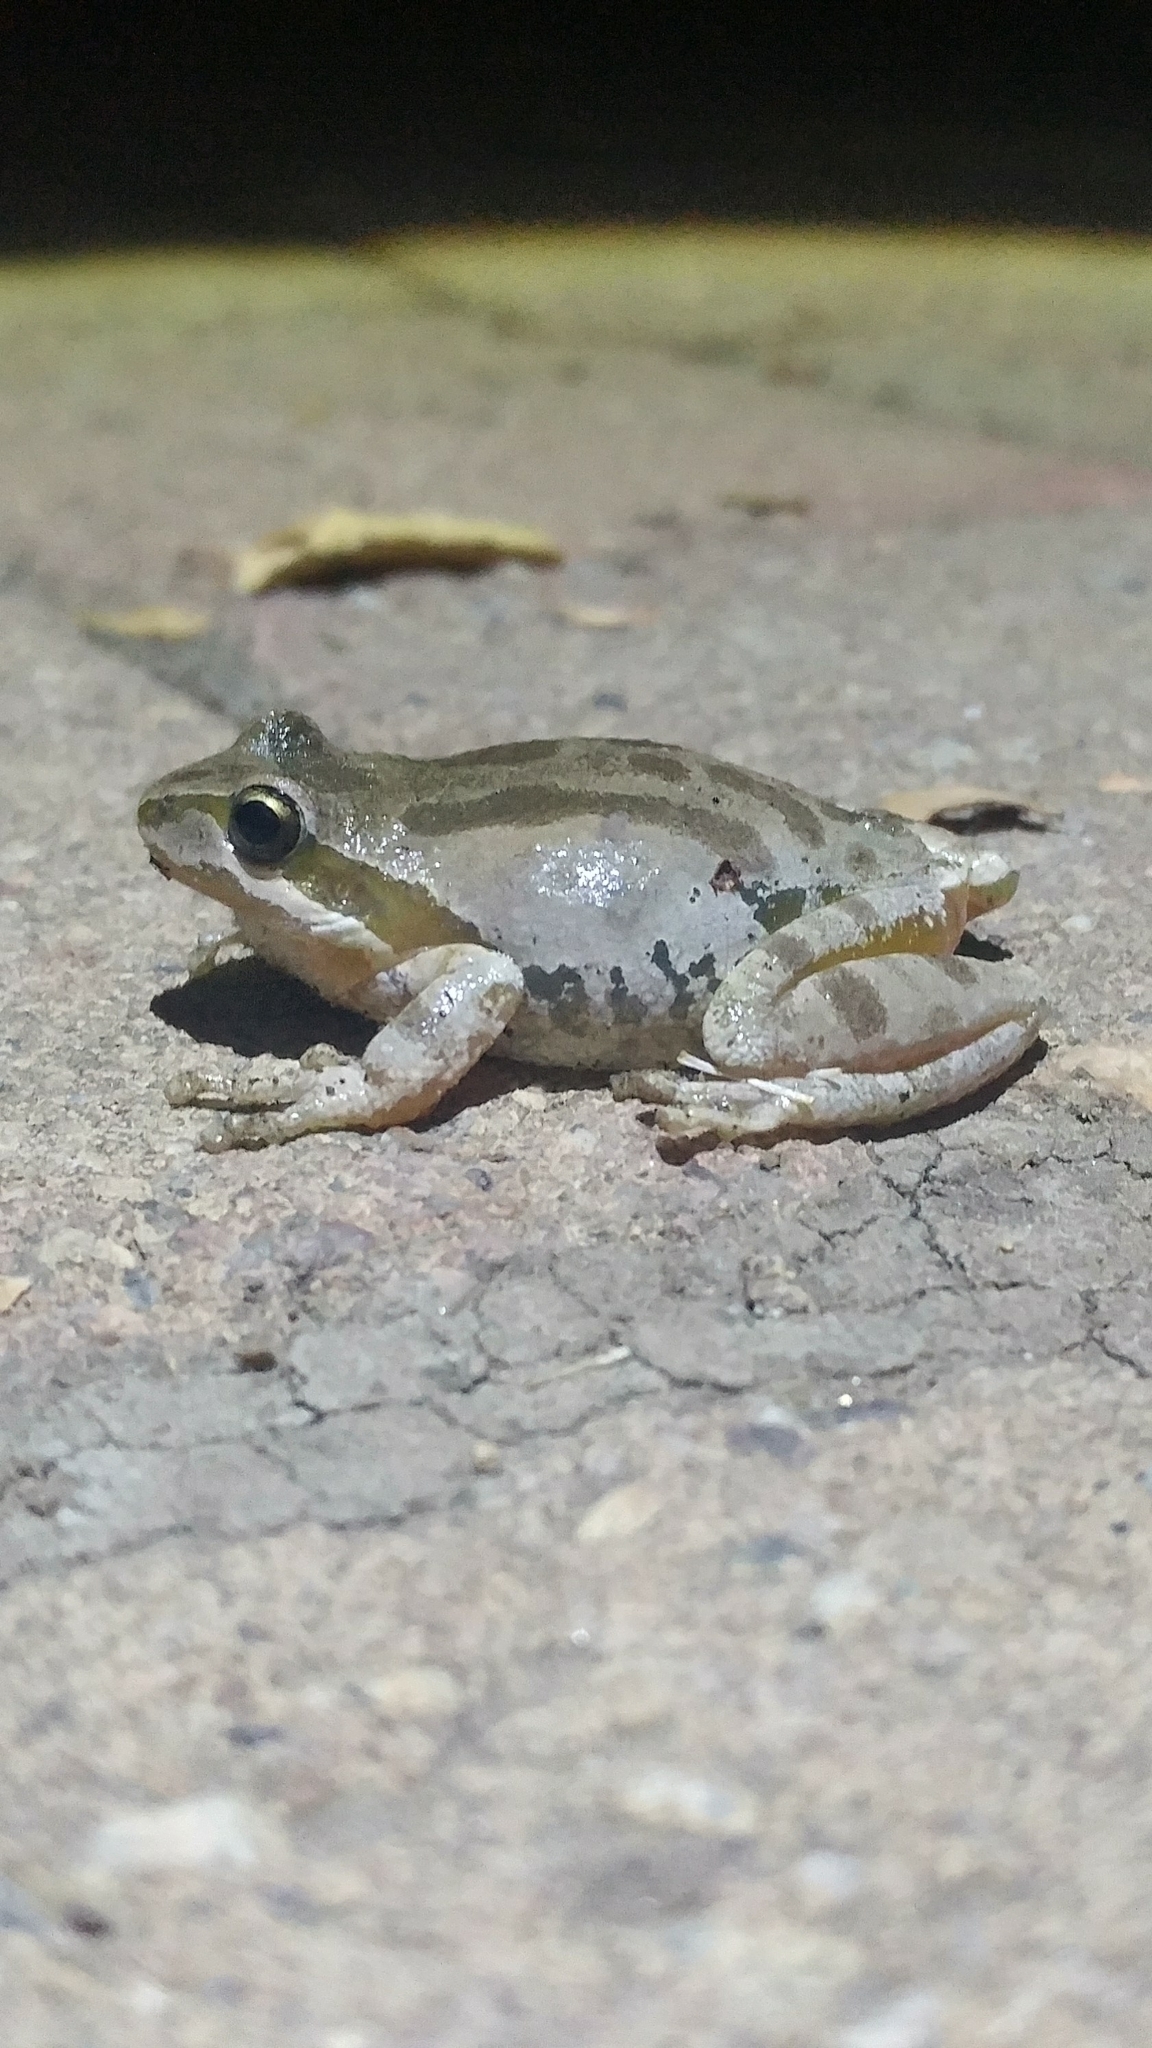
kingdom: Animalia
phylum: Chordata
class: Amphibia
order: Anura
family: Hylidae
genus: Pseudacris
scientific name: Pseudacris regilla
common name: Pacific chorus frog
